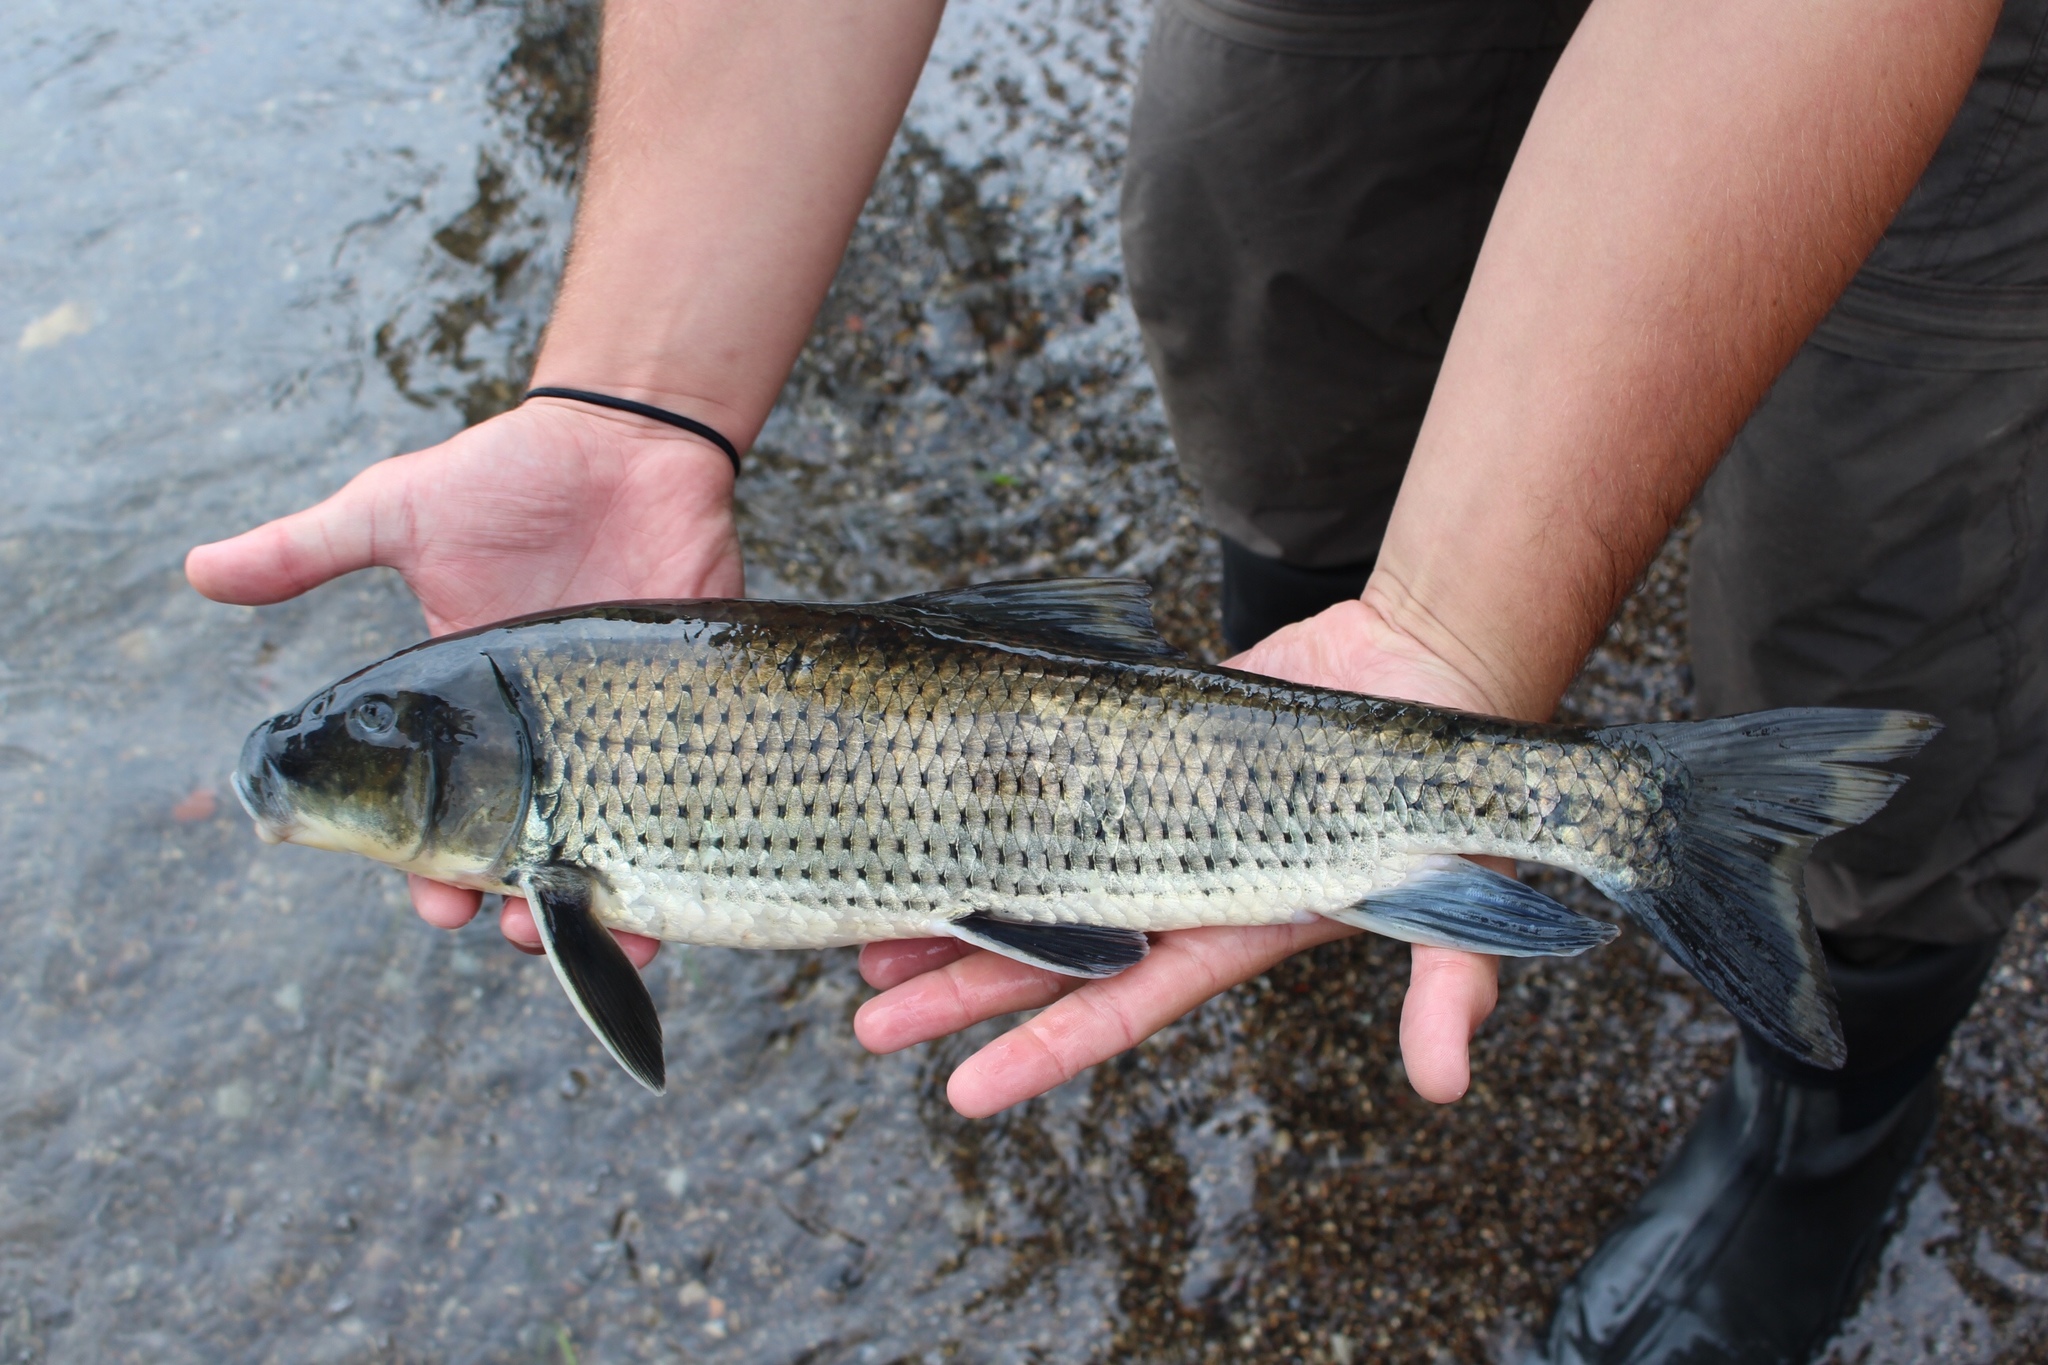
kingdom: Animalia
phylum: Chordata
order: Cypriniformes
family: Catostomidae
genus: Minytrema
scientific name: Minytrema melanops
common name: Spotted sucker
